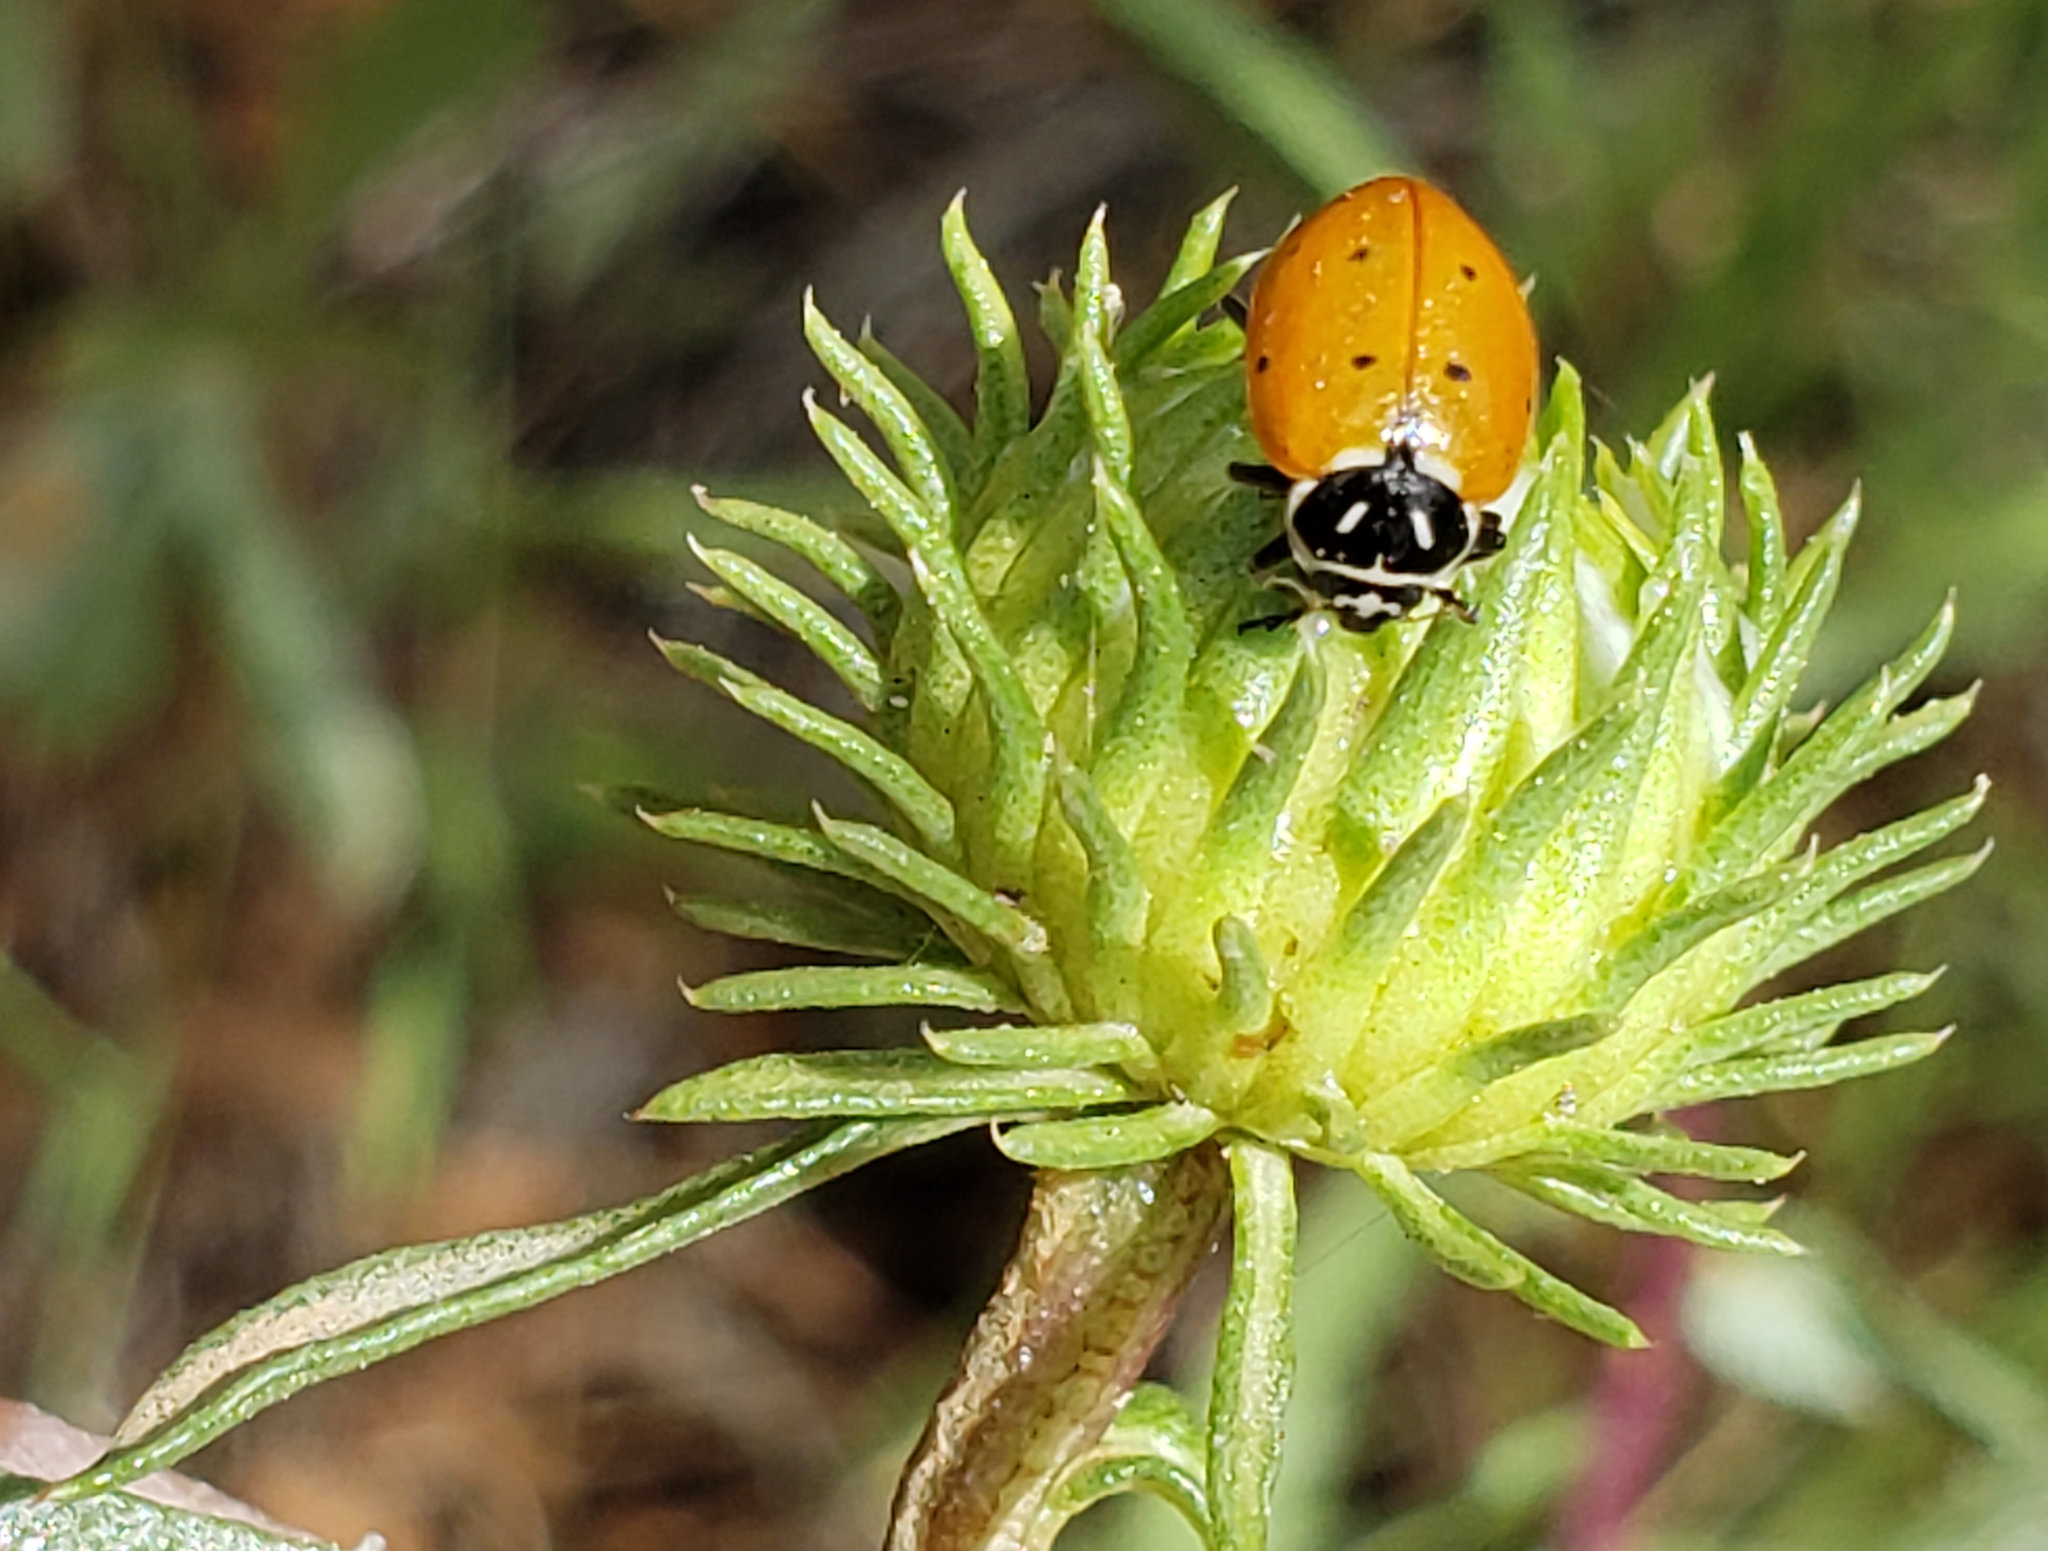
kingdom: Animalia
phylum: Arthropoda
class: Insecta
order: Coleoptera
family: Coccinellidae
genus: Hippodamia
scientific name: Hippodamia convergens
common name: Convergent lady beetle
